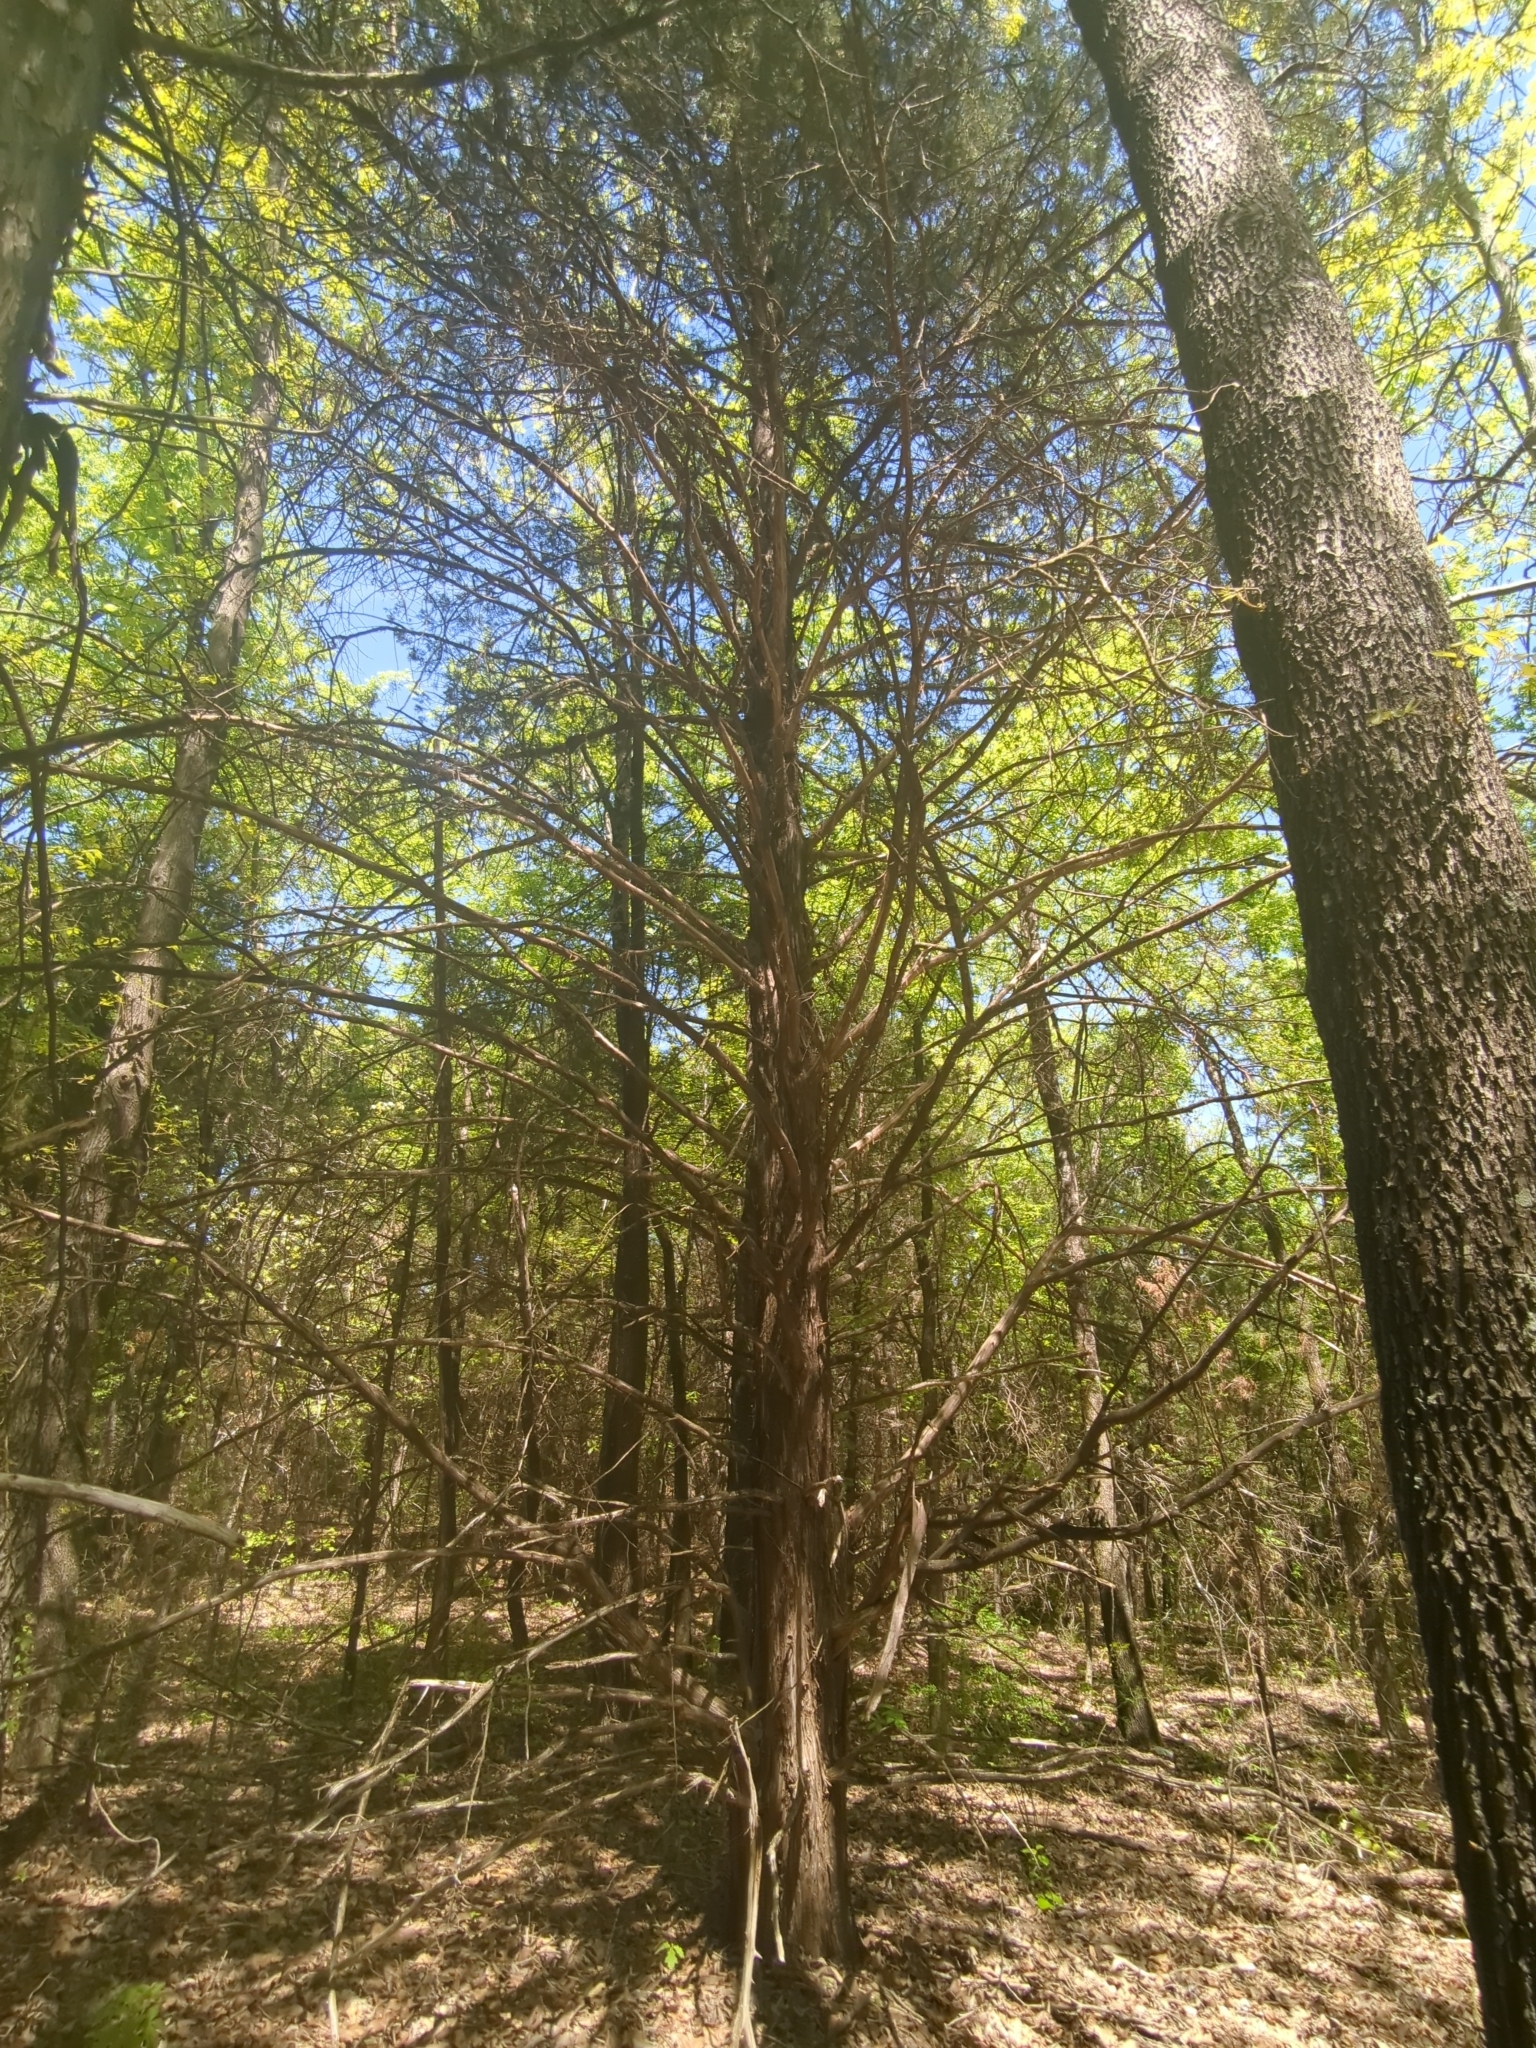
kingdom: Plantae
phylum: Tracheophyta
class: Pinopsida
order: Pinales
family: Cupressaceae
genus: Juniperus
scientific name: Juniperus virginiana
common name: Red juniper
